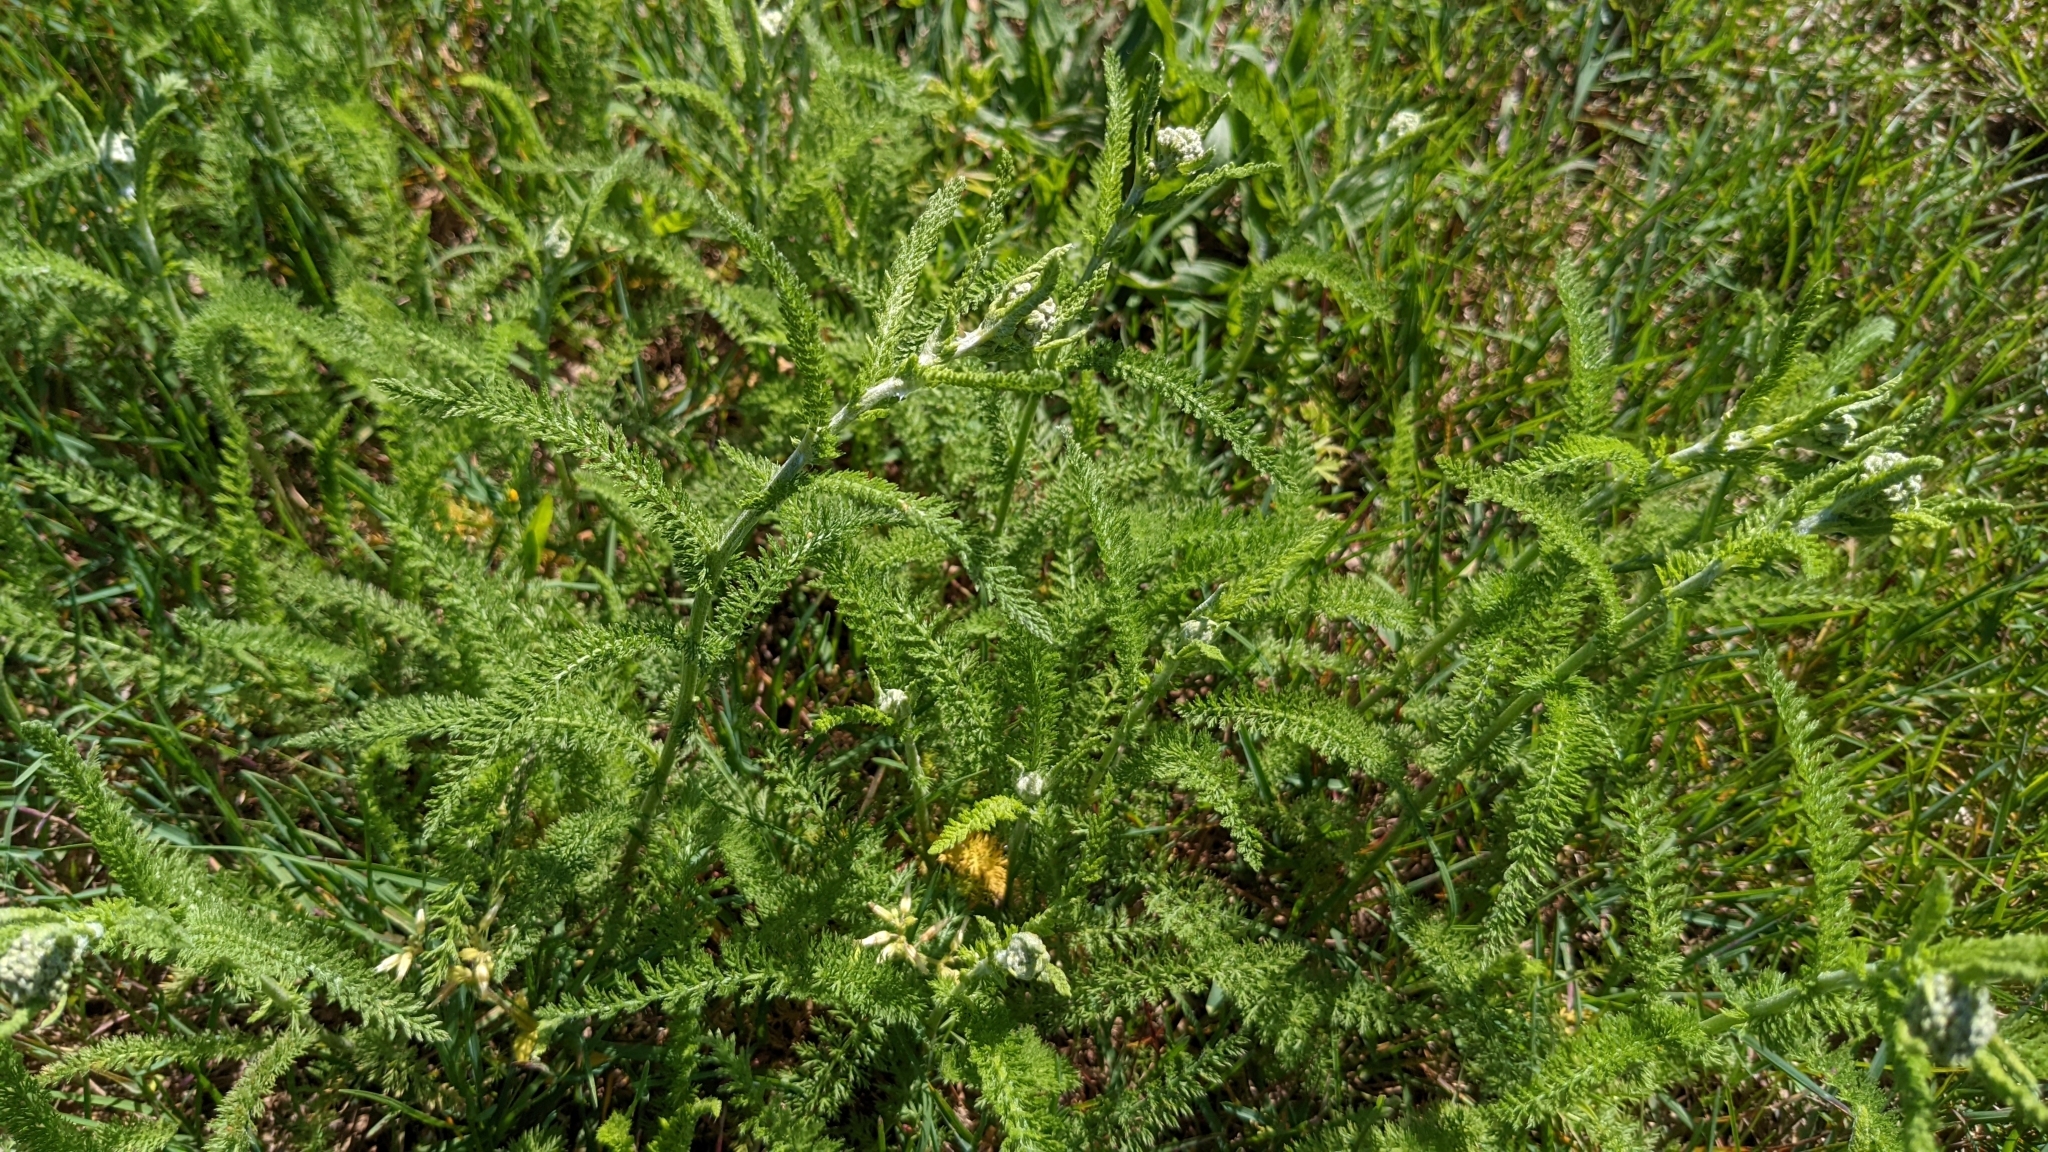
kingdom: Plantae
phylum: Tracheophyta
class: Magnoliopsida
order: Asterales
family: Asteraceae
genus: Achillea
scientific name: Achillea millefolium
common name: Yarrow
